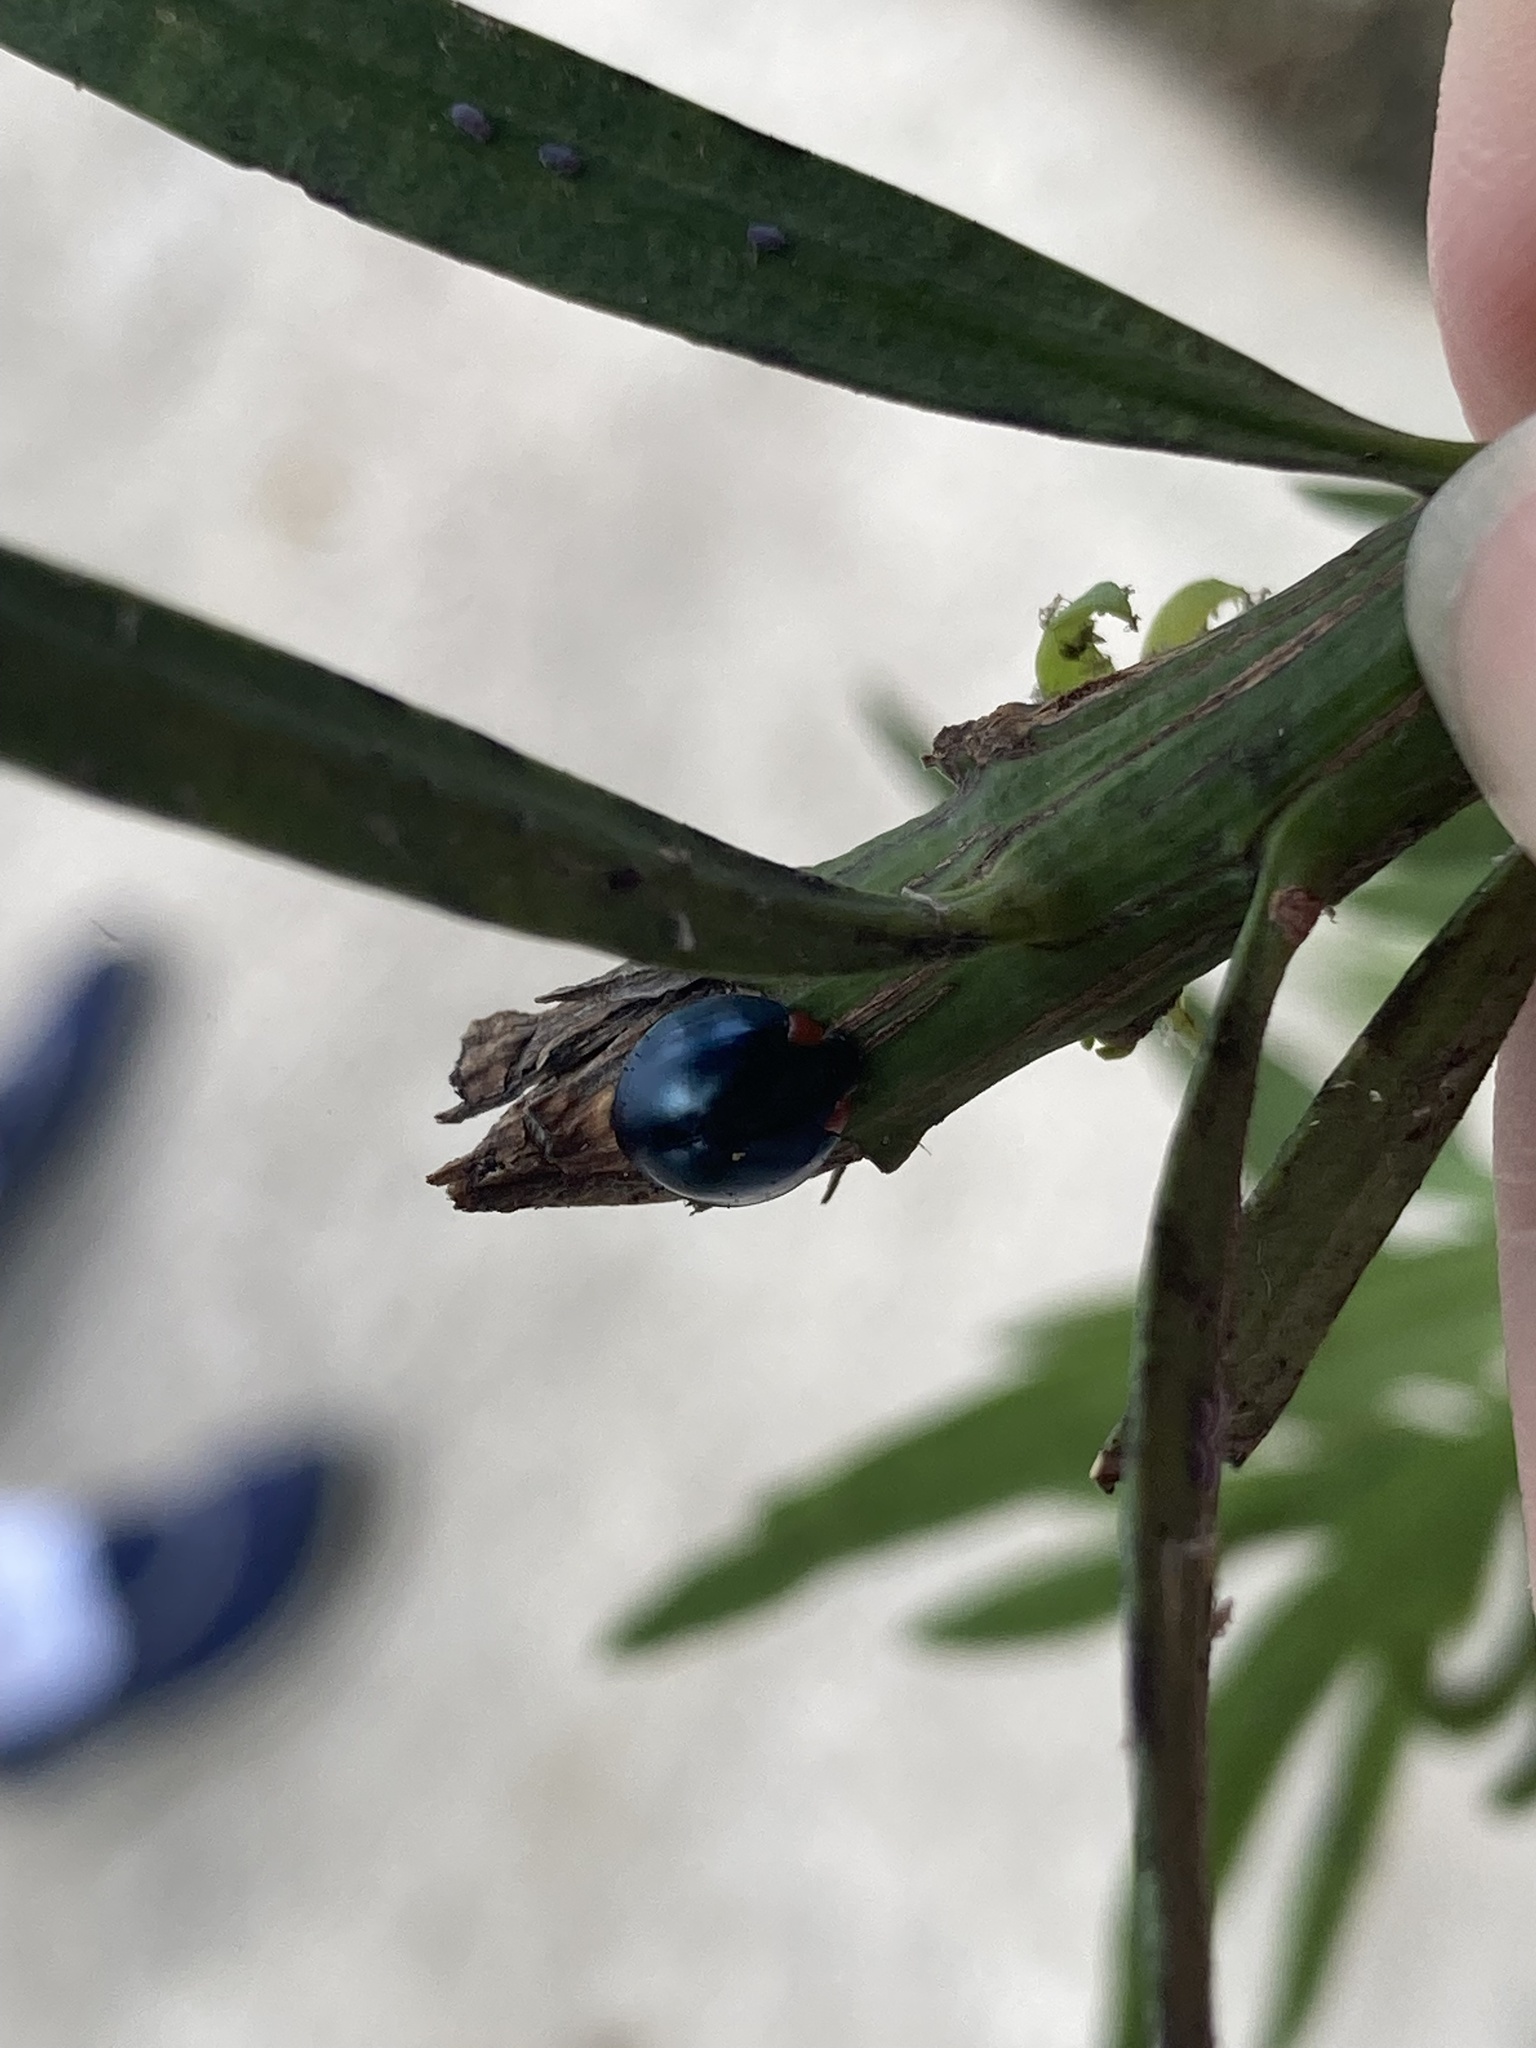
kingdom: Animalia
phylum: Arthropoda
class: Insecta
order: Coleoptera
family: Coccinellidae
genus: Curinus
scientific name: Curinus coeruleus
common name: Ladybird beetle
